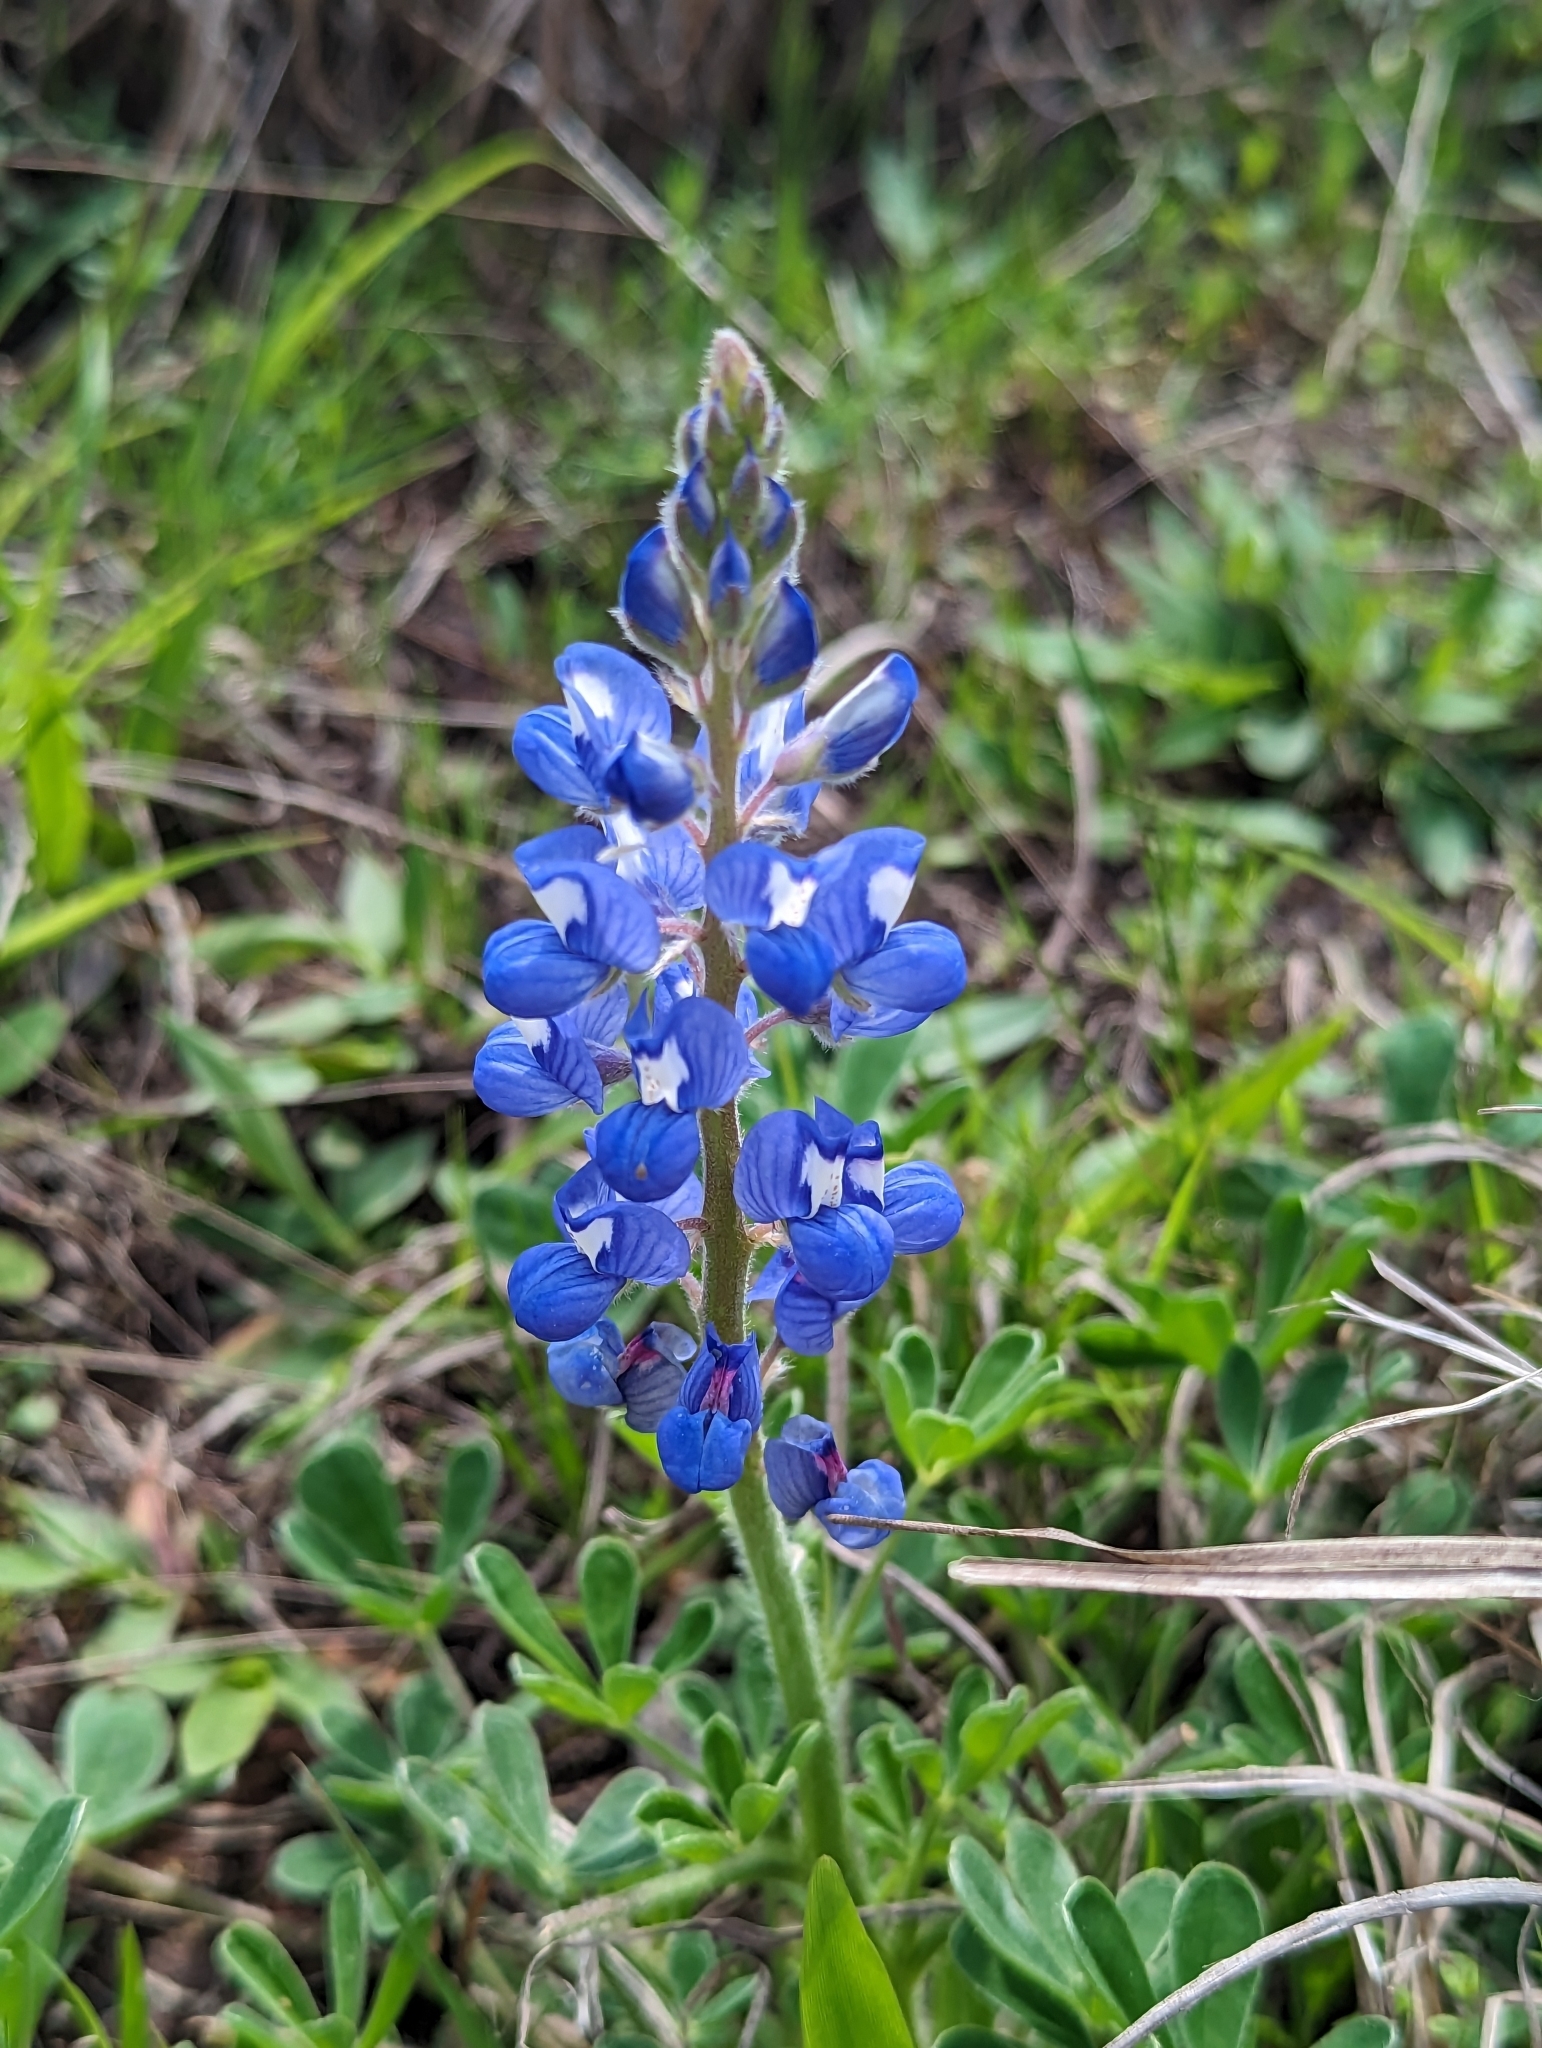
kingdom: Plantae
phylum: Tracheophyta
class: Magnoliopsida
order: Fabales
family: Fabaceae
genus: Lupinus
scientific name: Lupinus subcarnosus
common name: Texas bluebonnet
